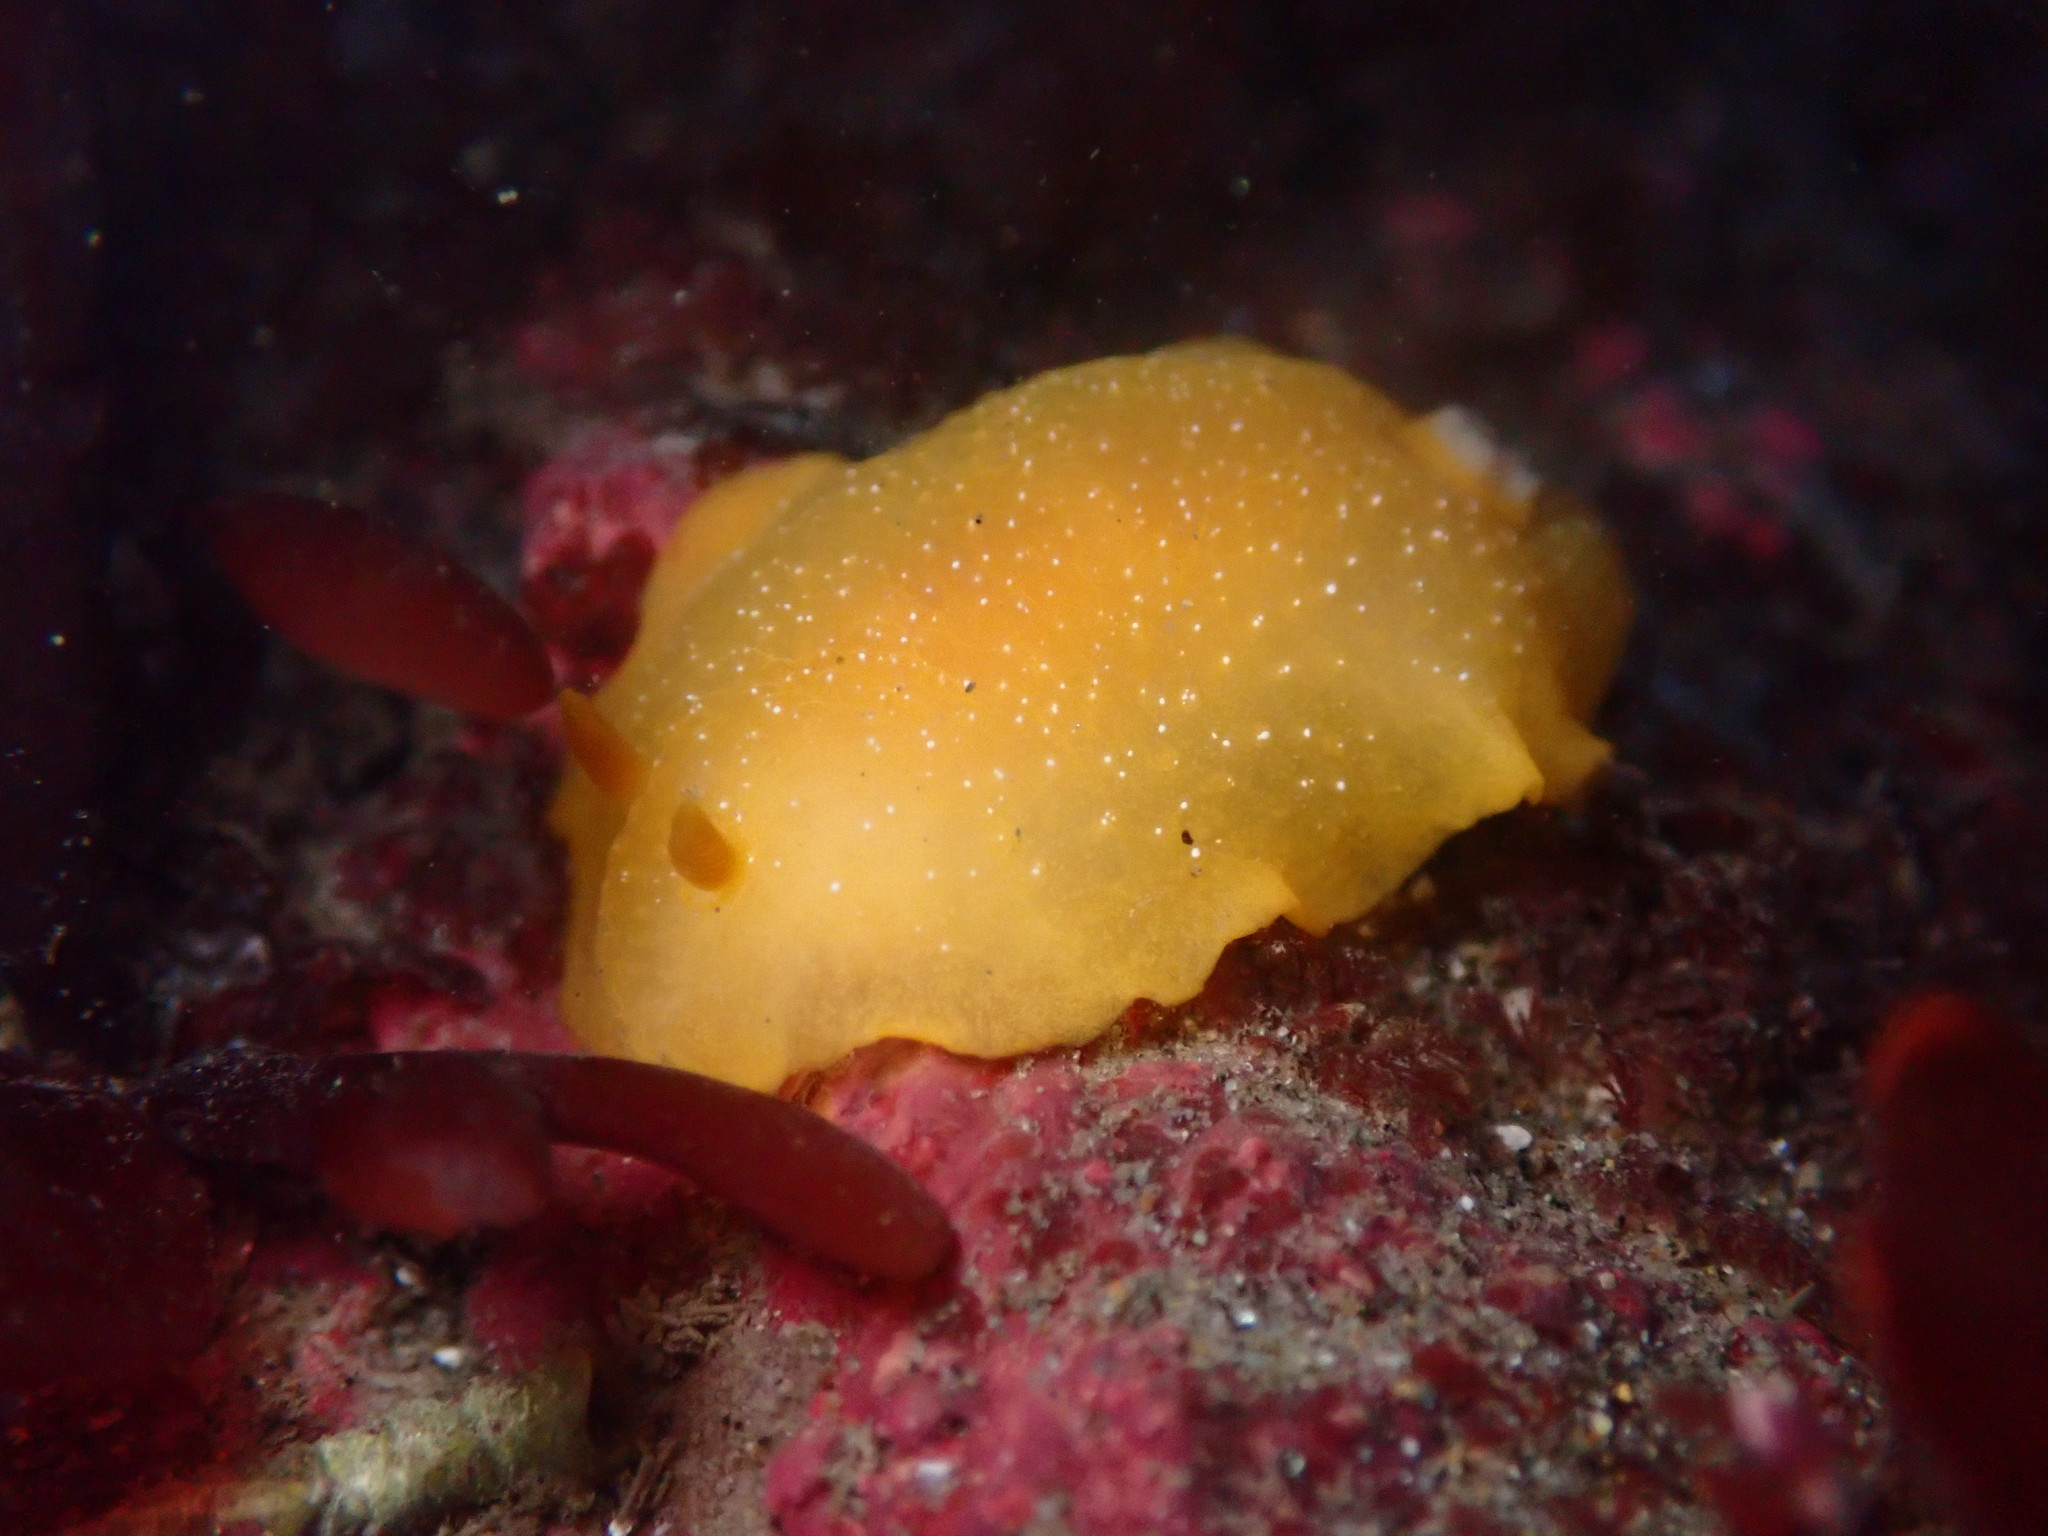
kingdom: Animalia
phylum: Mollusca
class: Gastropoda
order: Nudibranchia
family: Dendrodorididae
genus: Doriopsilla
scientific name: Doriopsilla fulva
